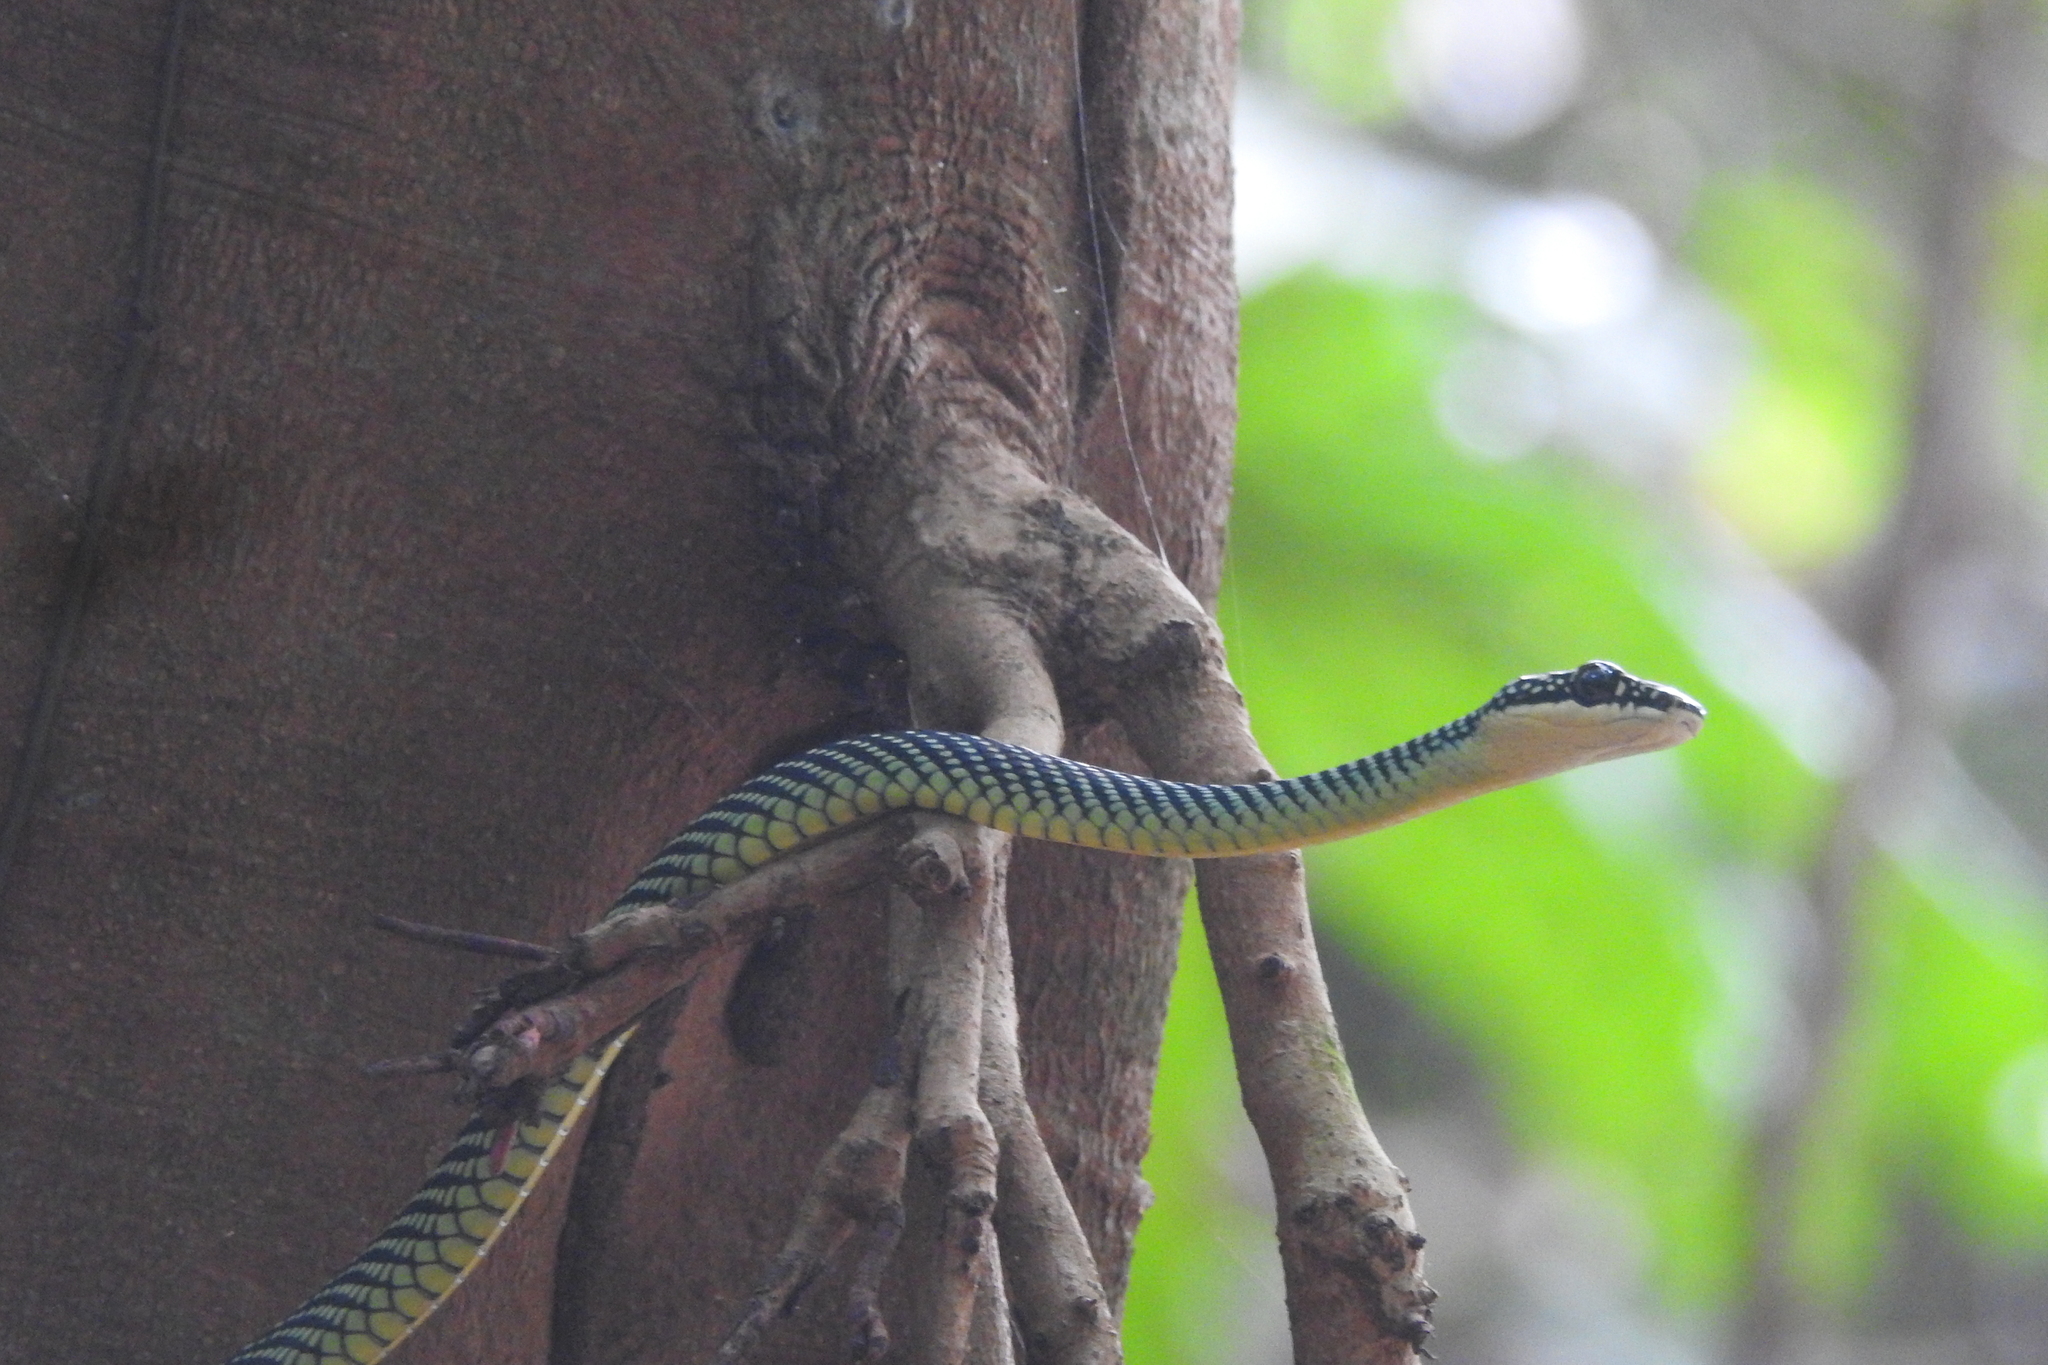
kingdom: Animalia
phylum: Chordata
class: Squamata
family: Colubridae
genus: Chrysopelea
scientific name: Chrysopelea paradisi
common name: Paradise tree snake
